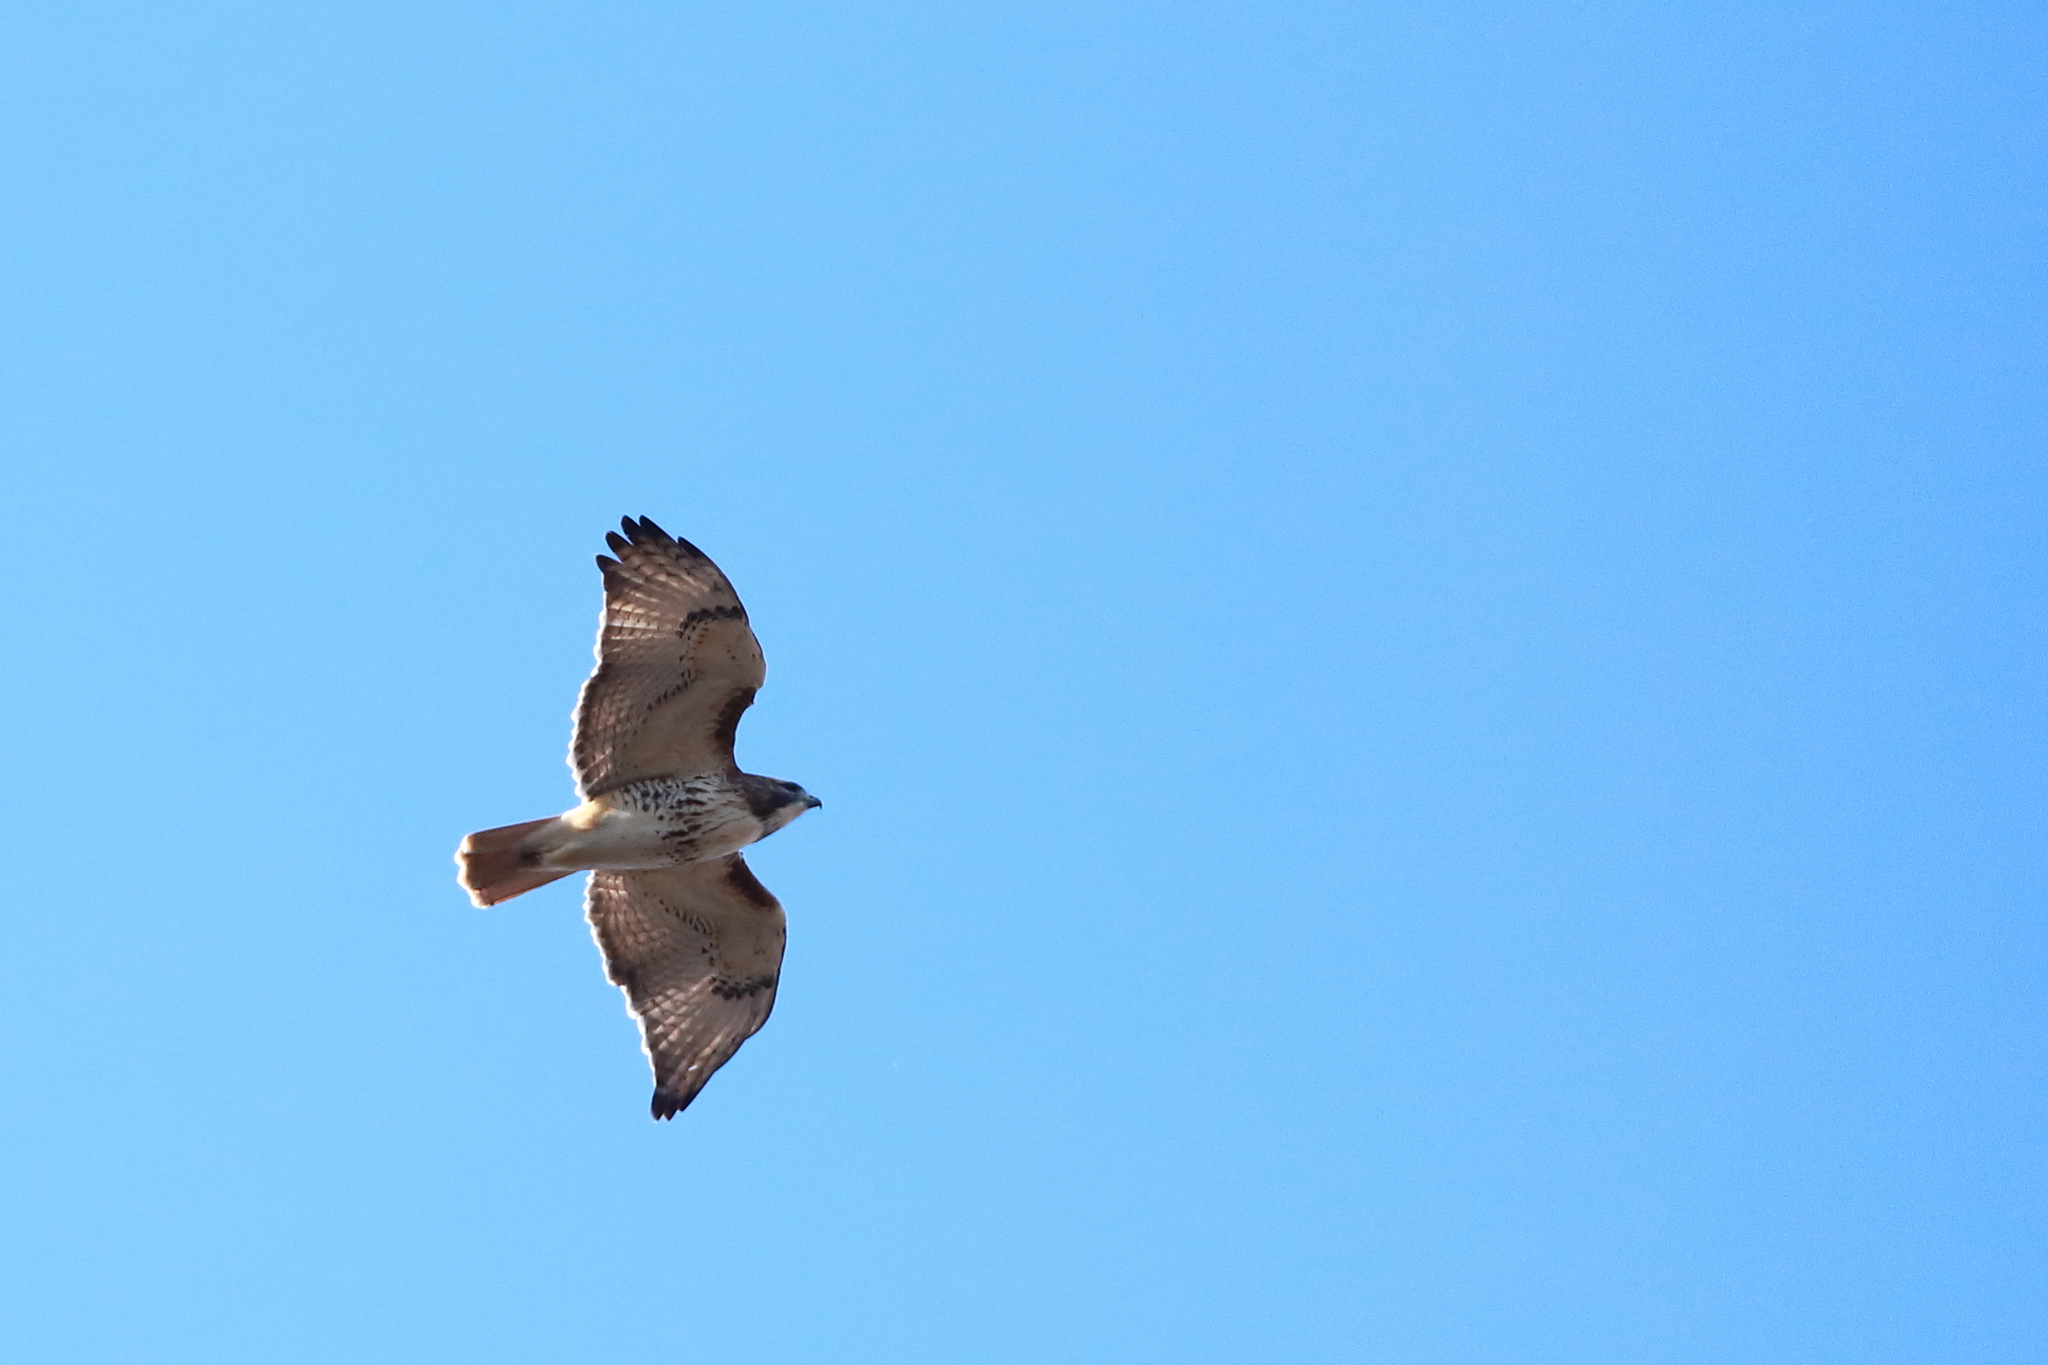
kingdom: Animalia
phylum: Chordata
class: Aves
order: Accipitriformes
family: Accipitridae
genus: Buteo
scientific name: Buteo jamaicensis
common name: Red-tailed hawk
